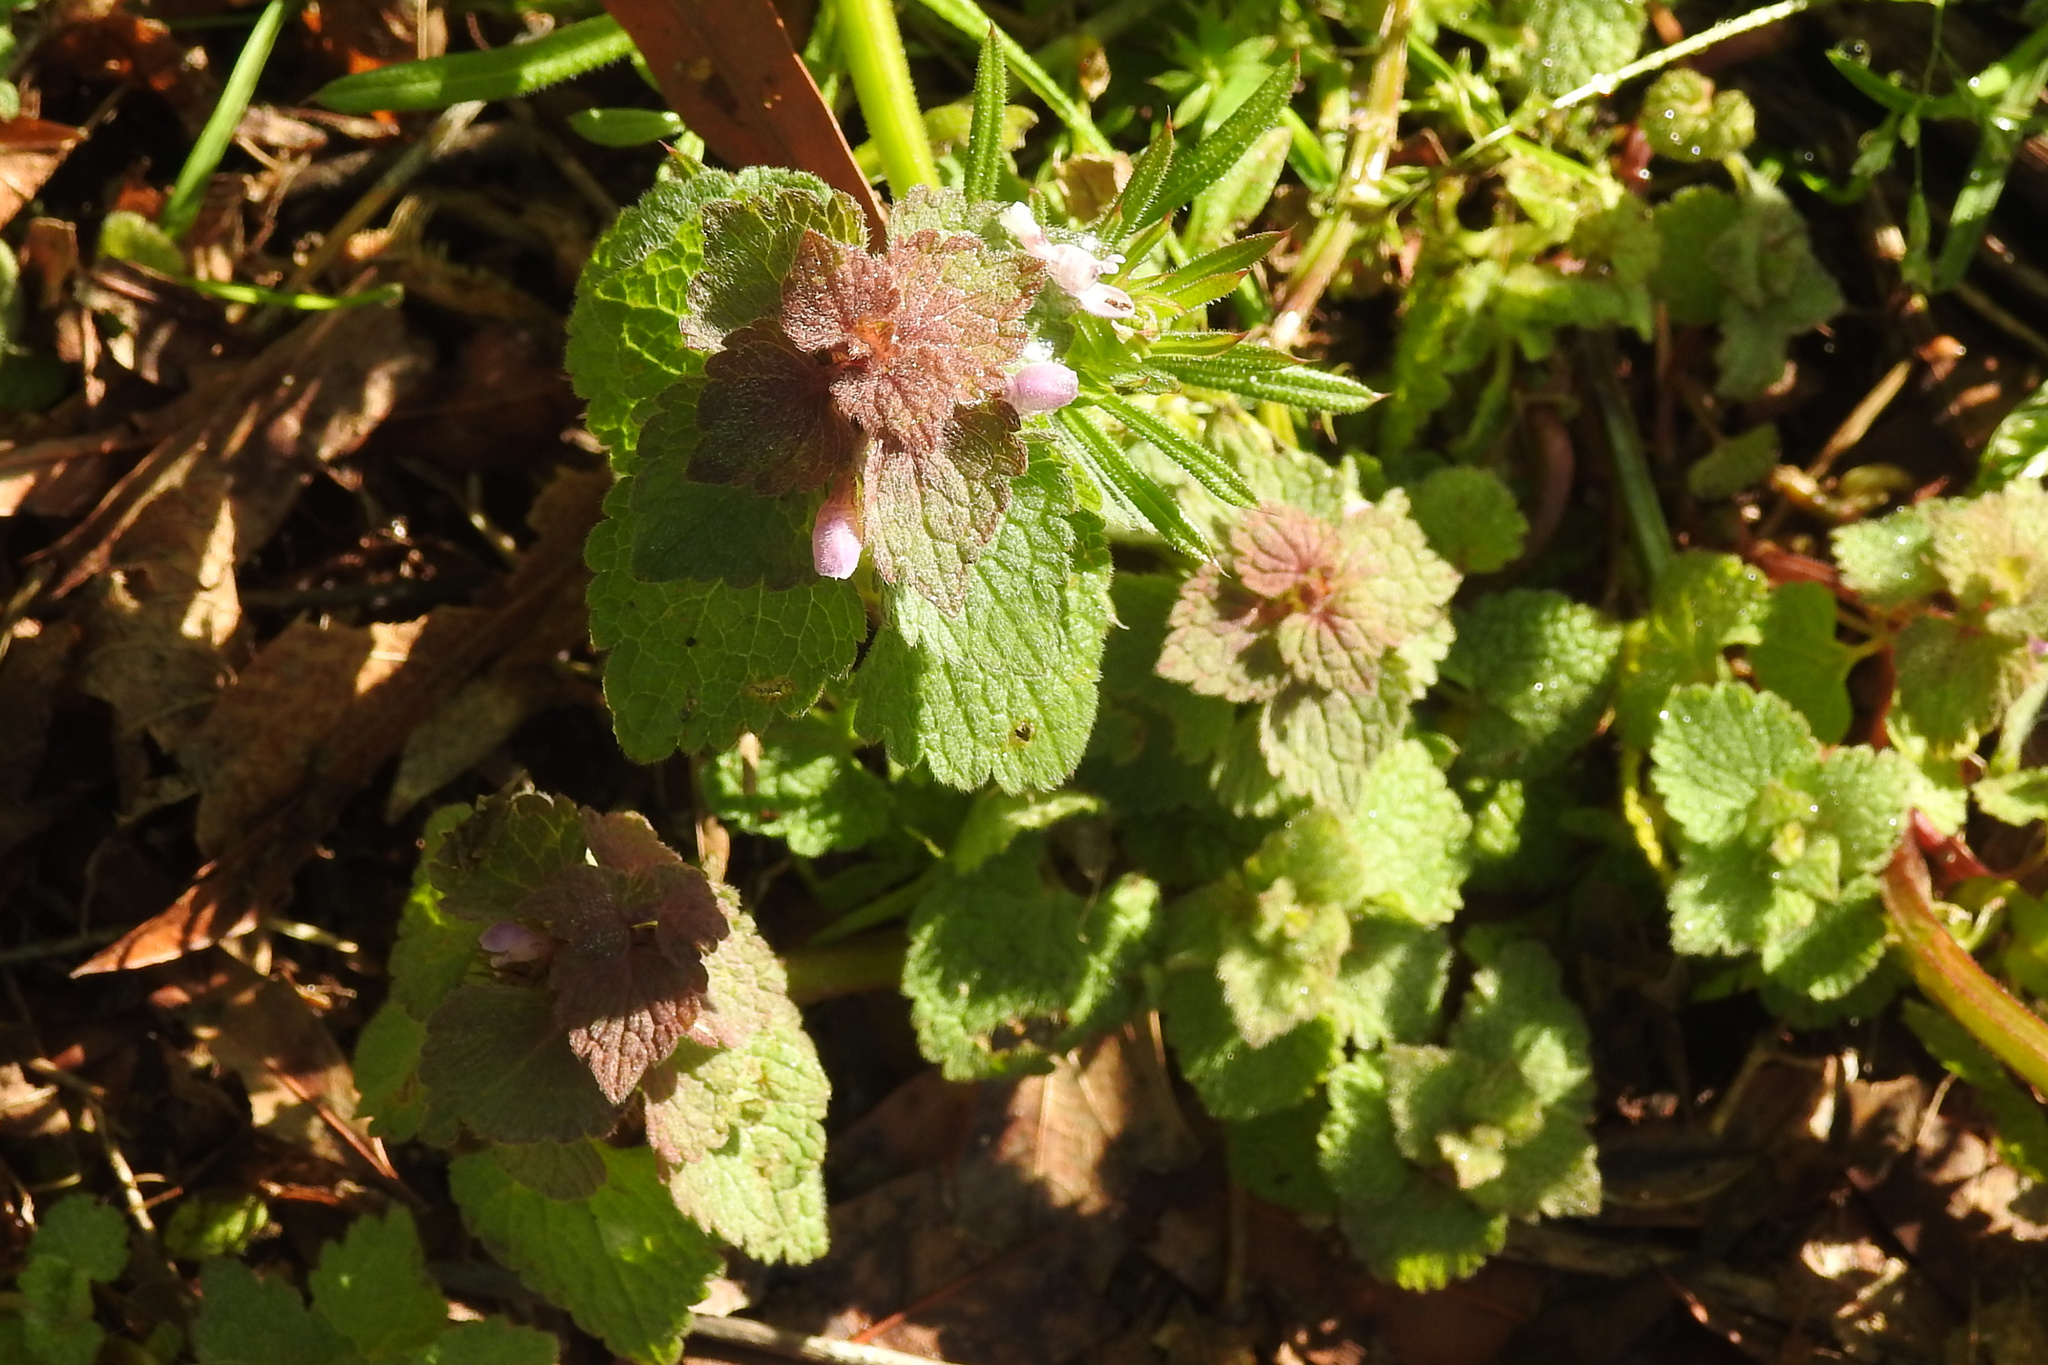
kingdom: Plantae
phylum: Tracheophyta
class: Magnoliopsida
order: Lamiales
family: Lamiaceae
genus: Lamium
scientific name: Lamium purpureum
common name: Red dead-nettle
